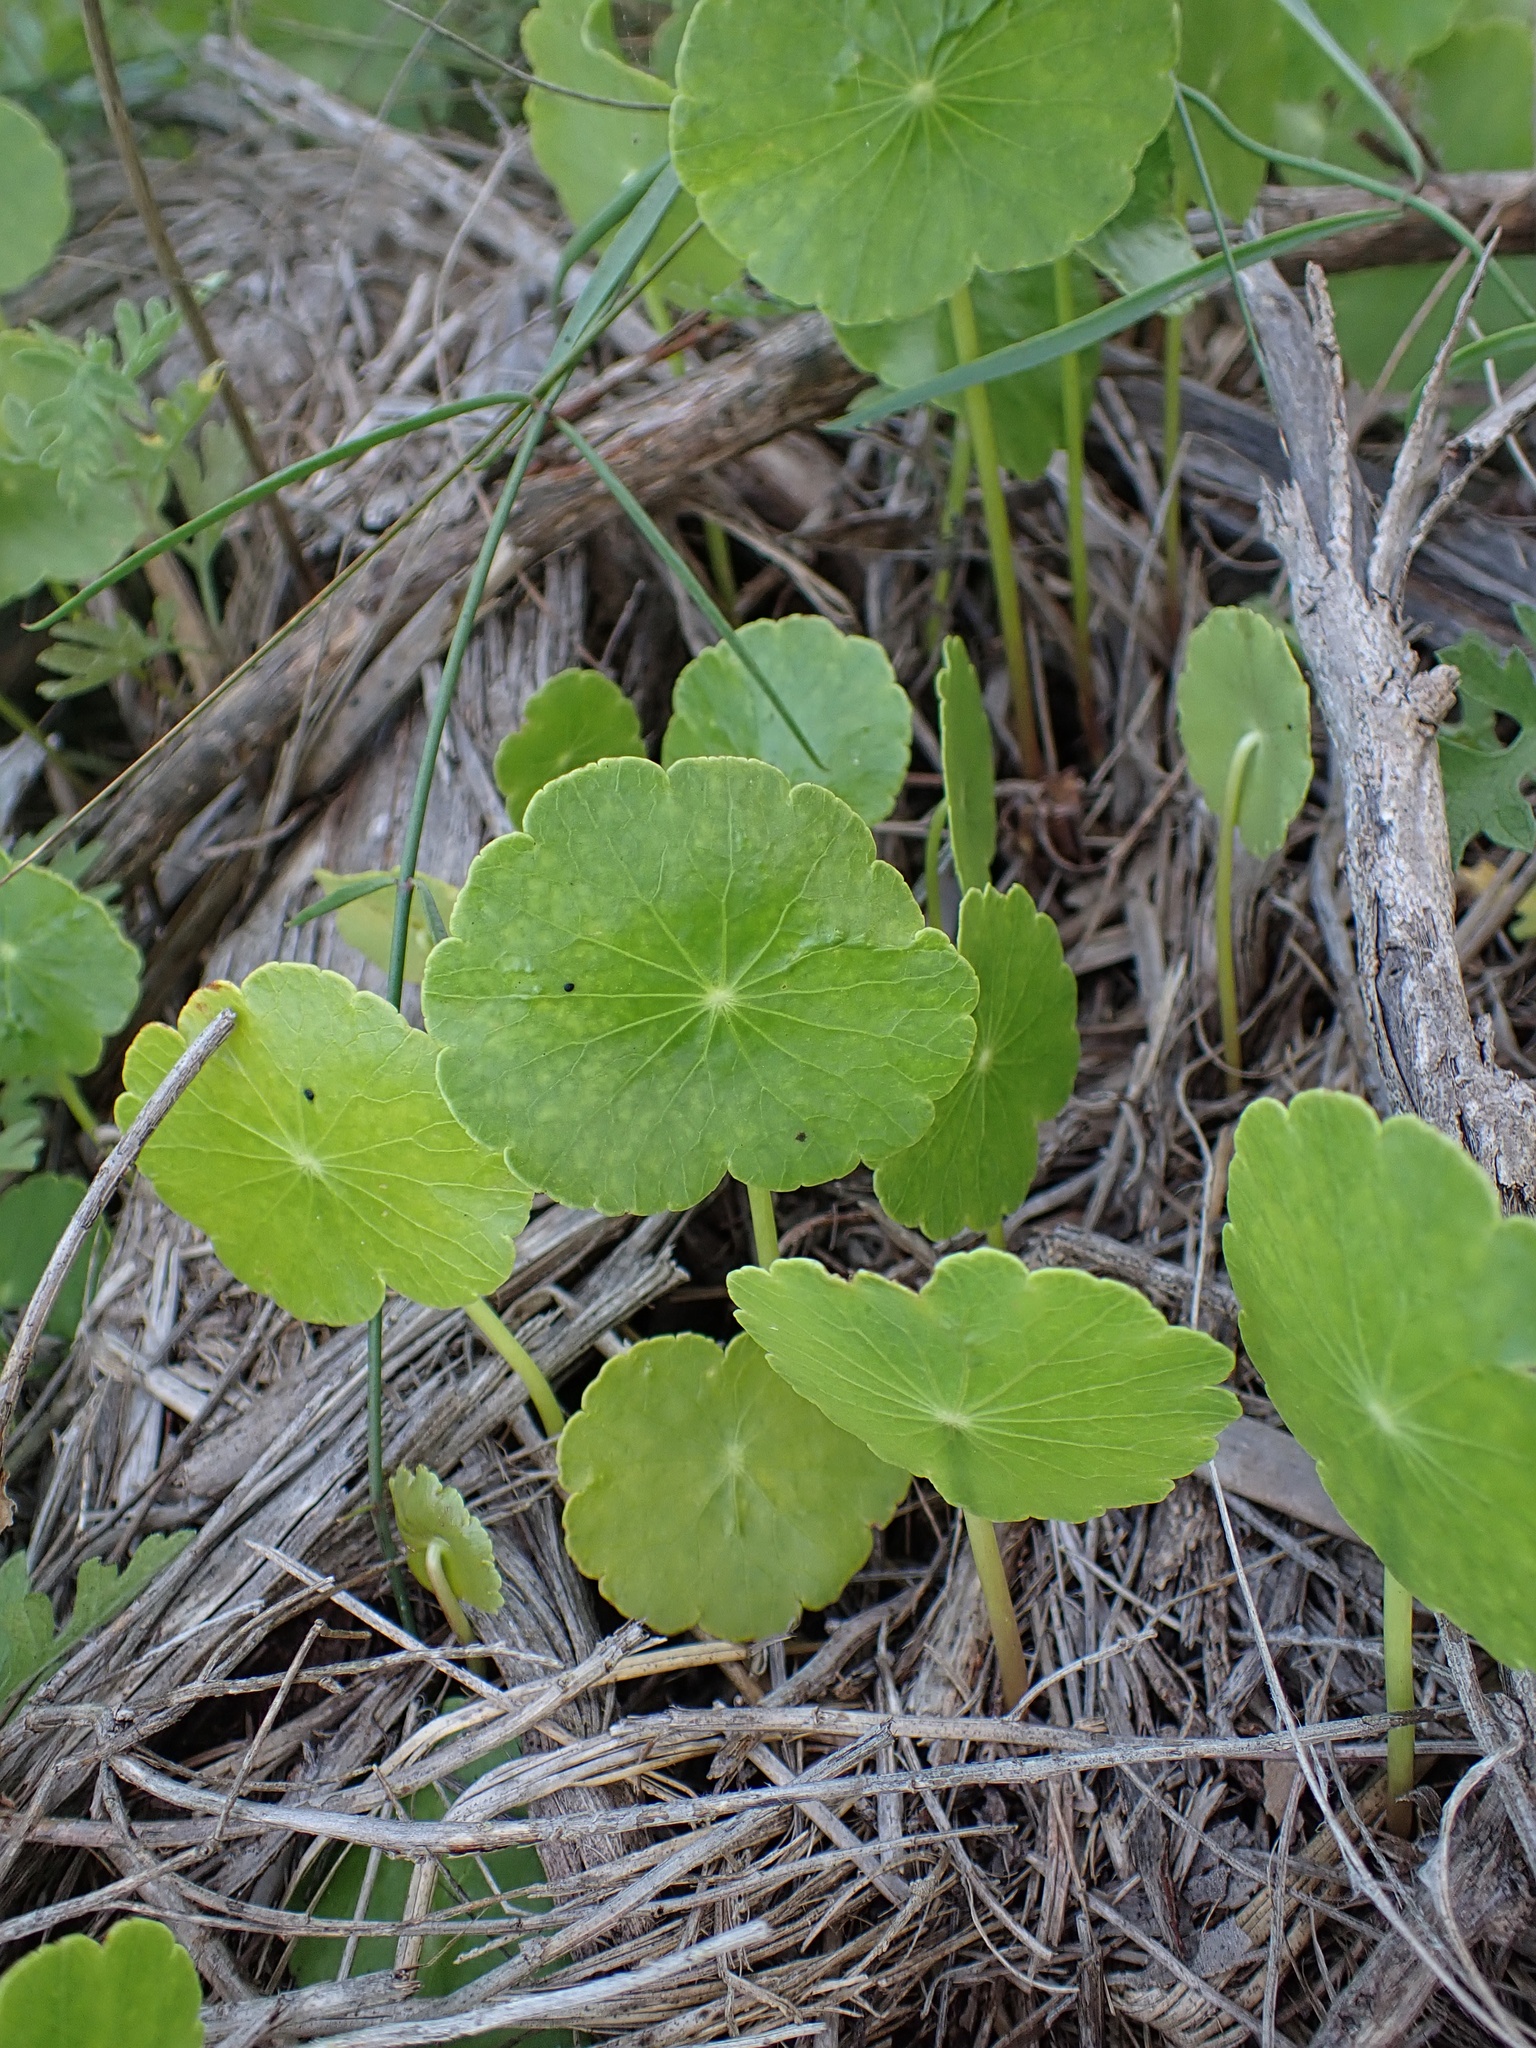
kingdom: Plantae
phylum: Tracheophyta
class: Magnoliopsida
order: Apiales
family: Araliaceae
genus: Hydrocotyle
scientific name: Hydrocotyle bonariensis
